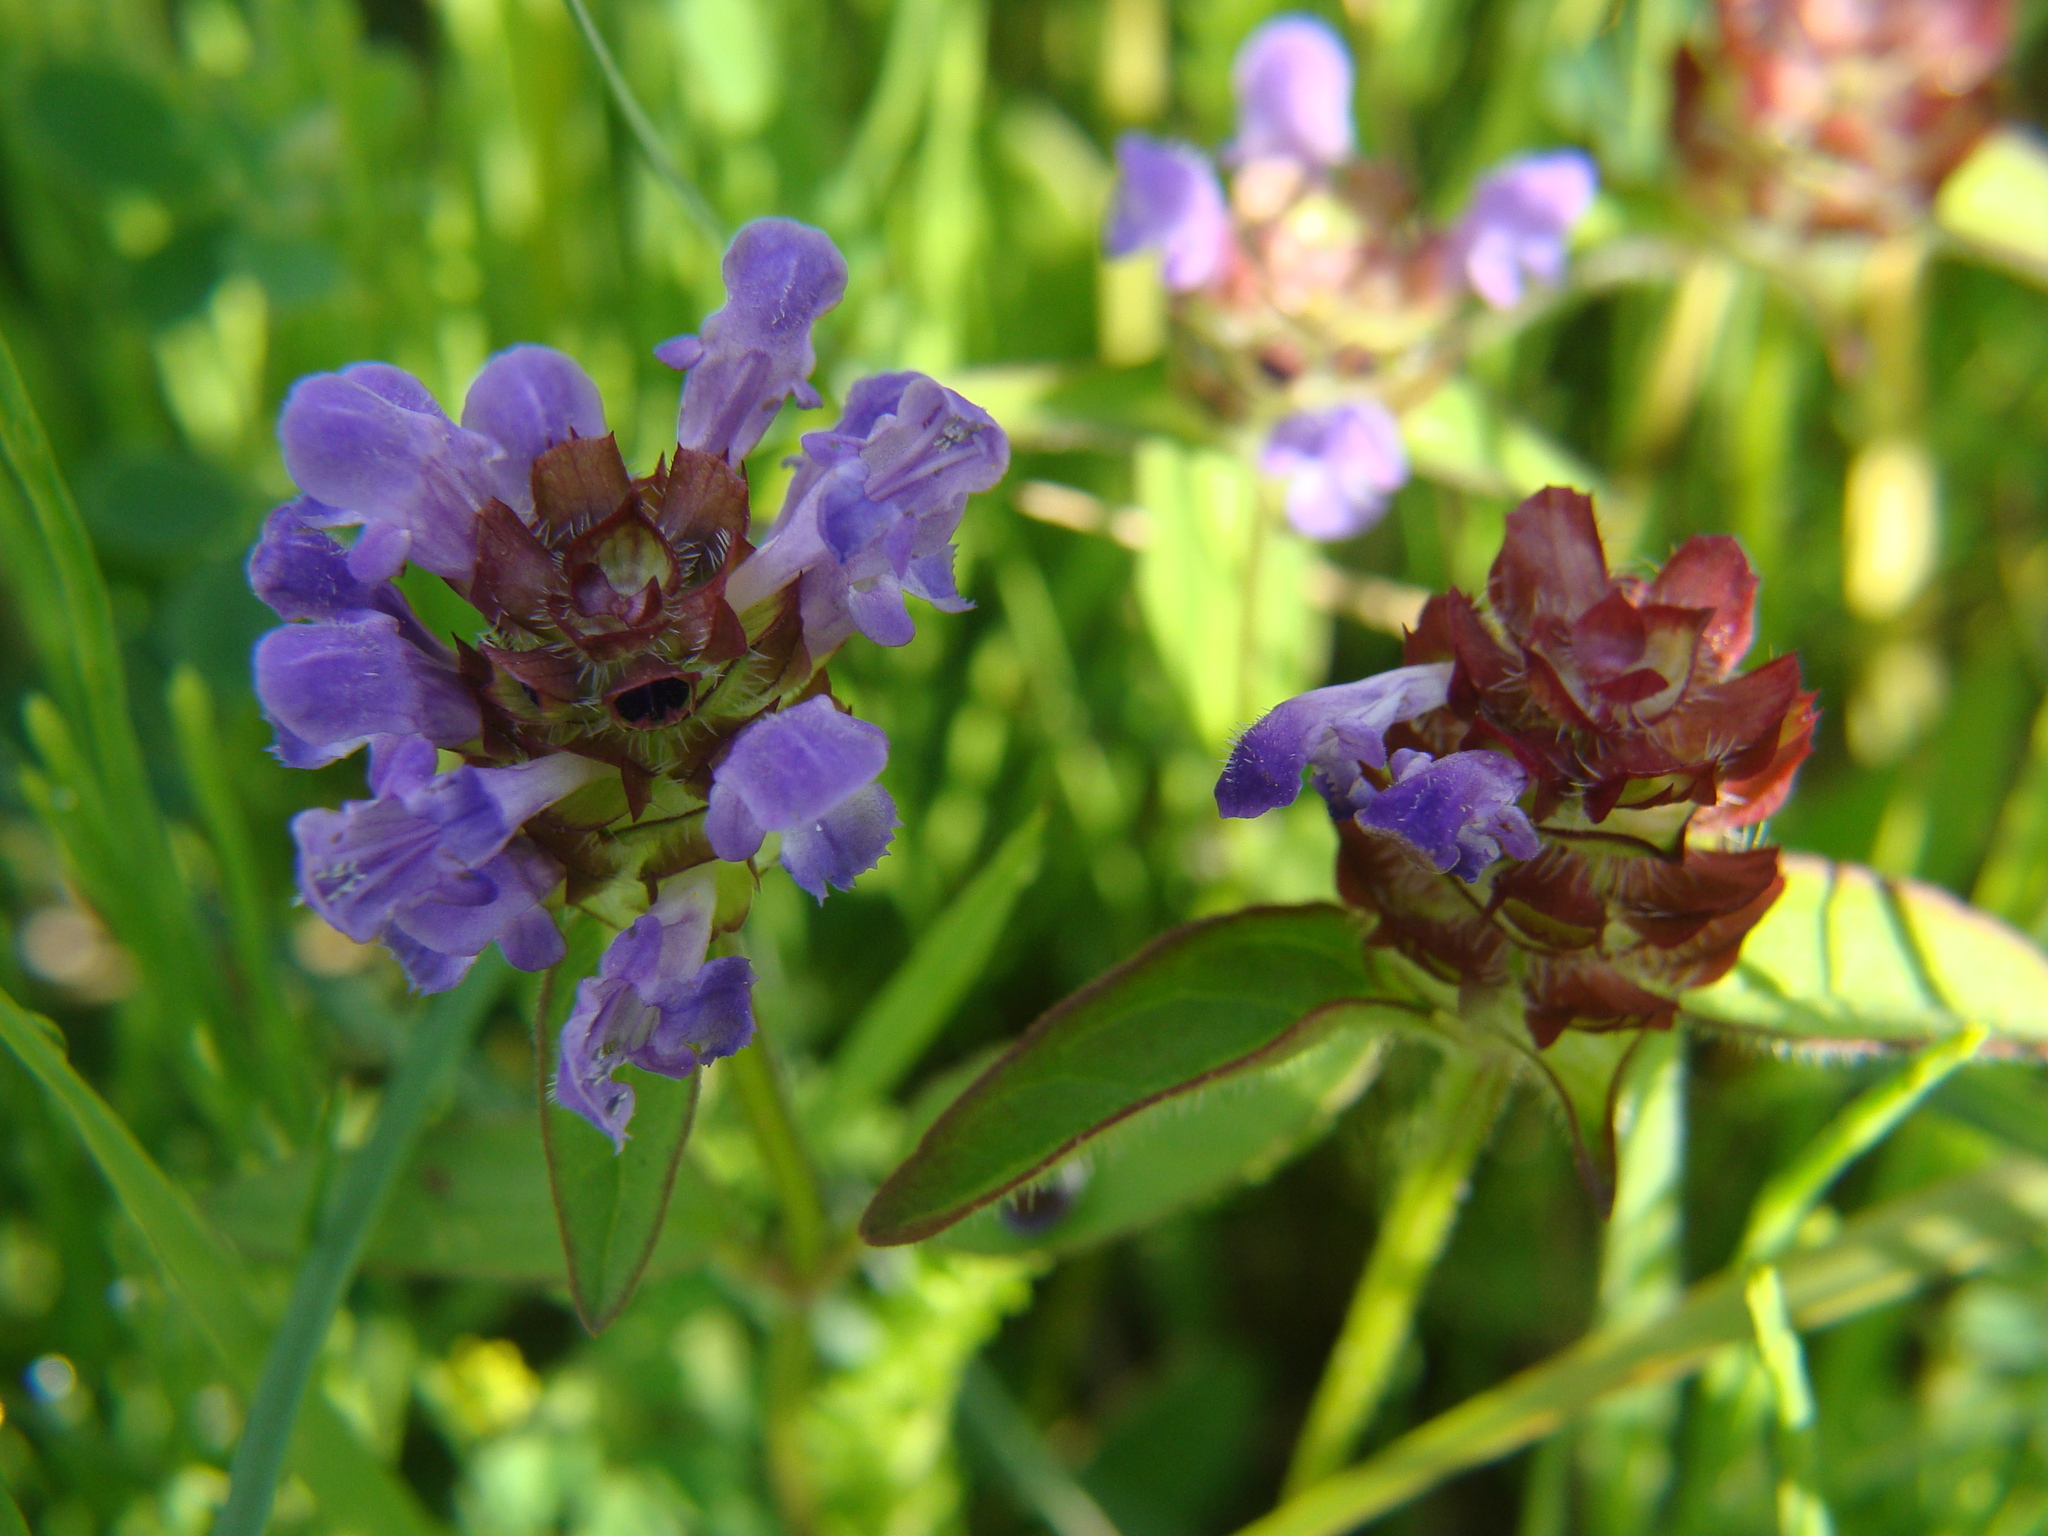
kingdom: Plantae
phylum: Tracheophyta
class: Magnoliopsida
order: Lamiales
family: Lamiaceae
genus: Prunella
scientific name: Prunella vulgaris
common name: Heal-all
